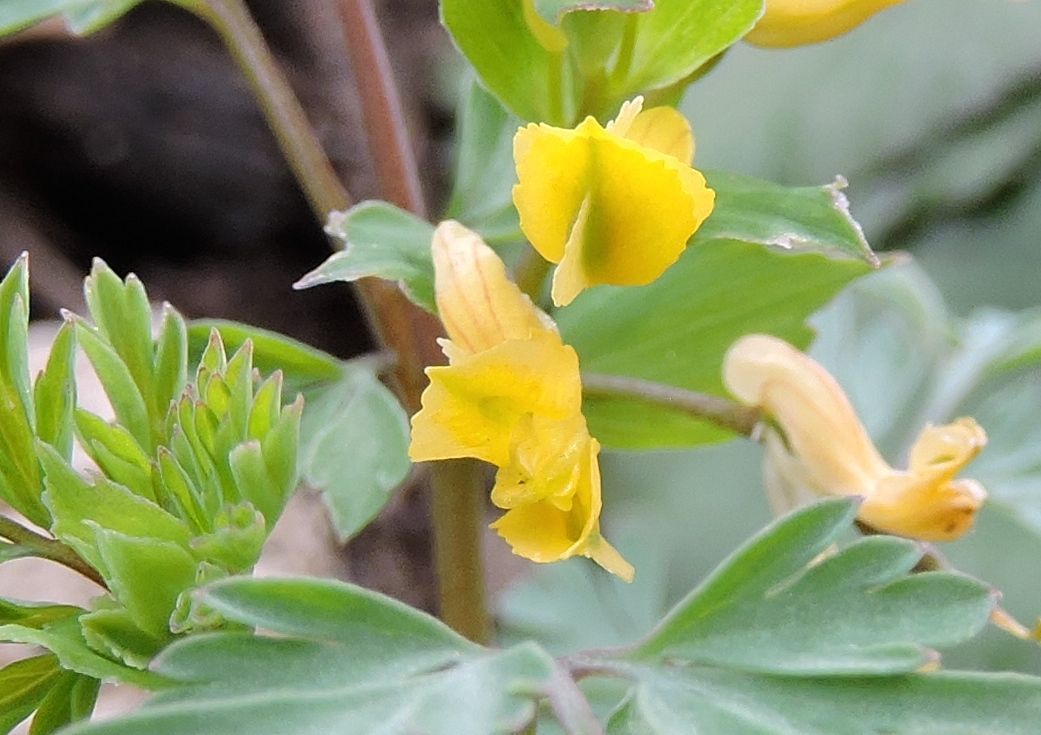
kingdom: Plantae
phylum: Tracheophyta
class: Magnoliopsida
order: Ranunculales
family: Papaveraceae
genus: Corydalis
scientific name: Corydalis flavula
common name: Yellow corydalis
